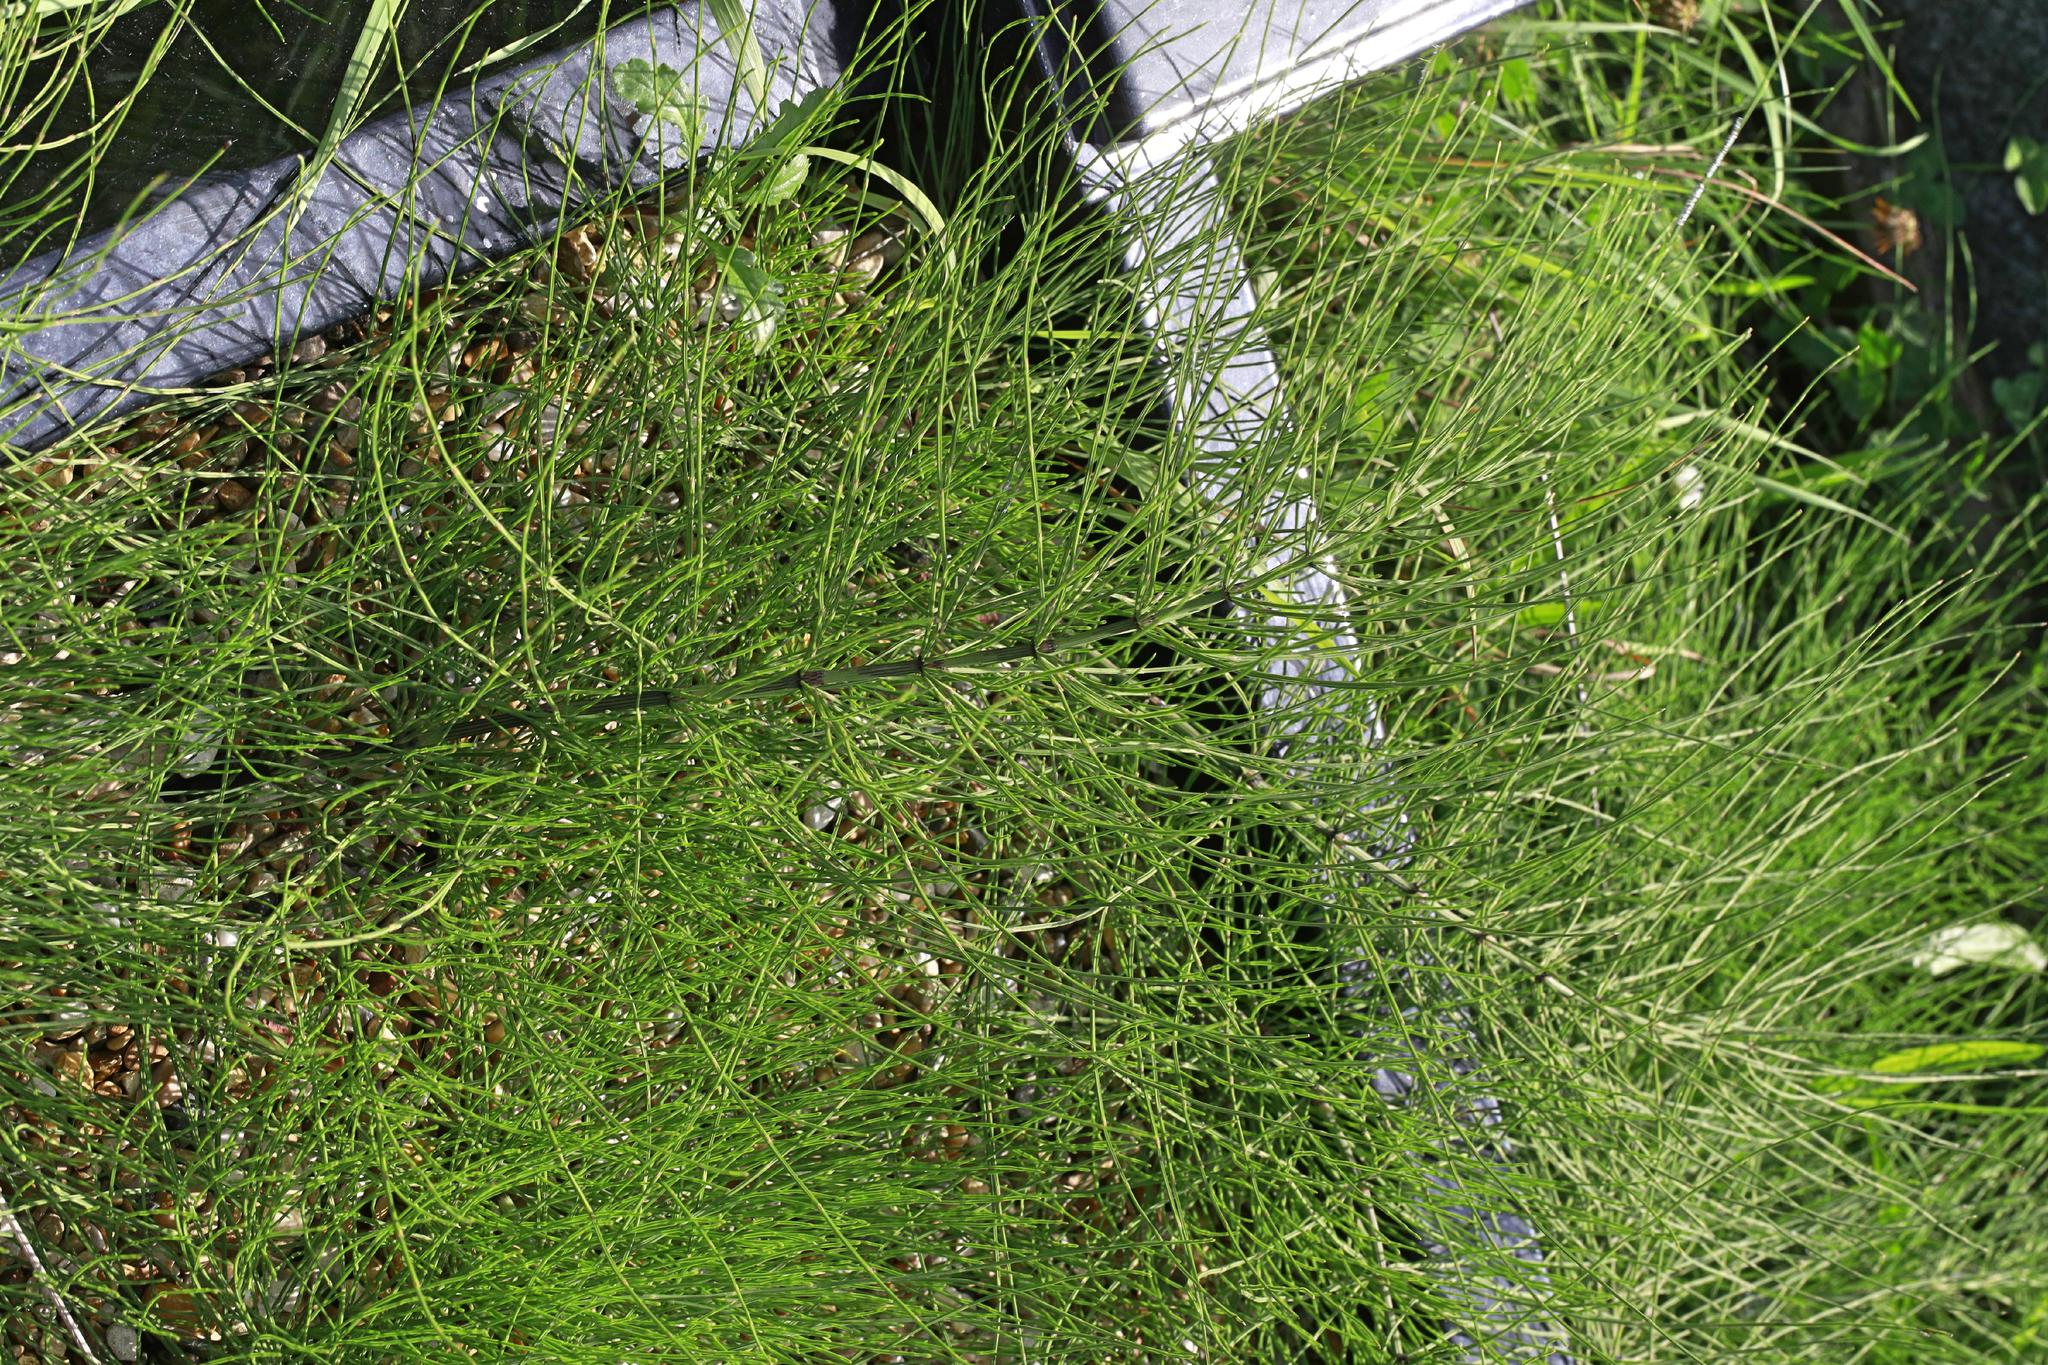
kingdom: Plantae
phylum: Tracheophyta
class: Polypodiopsida
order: Equisetales
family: Equisetaceae
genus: Equisetum
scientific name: Equisetum arvense
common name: Field horsetail
